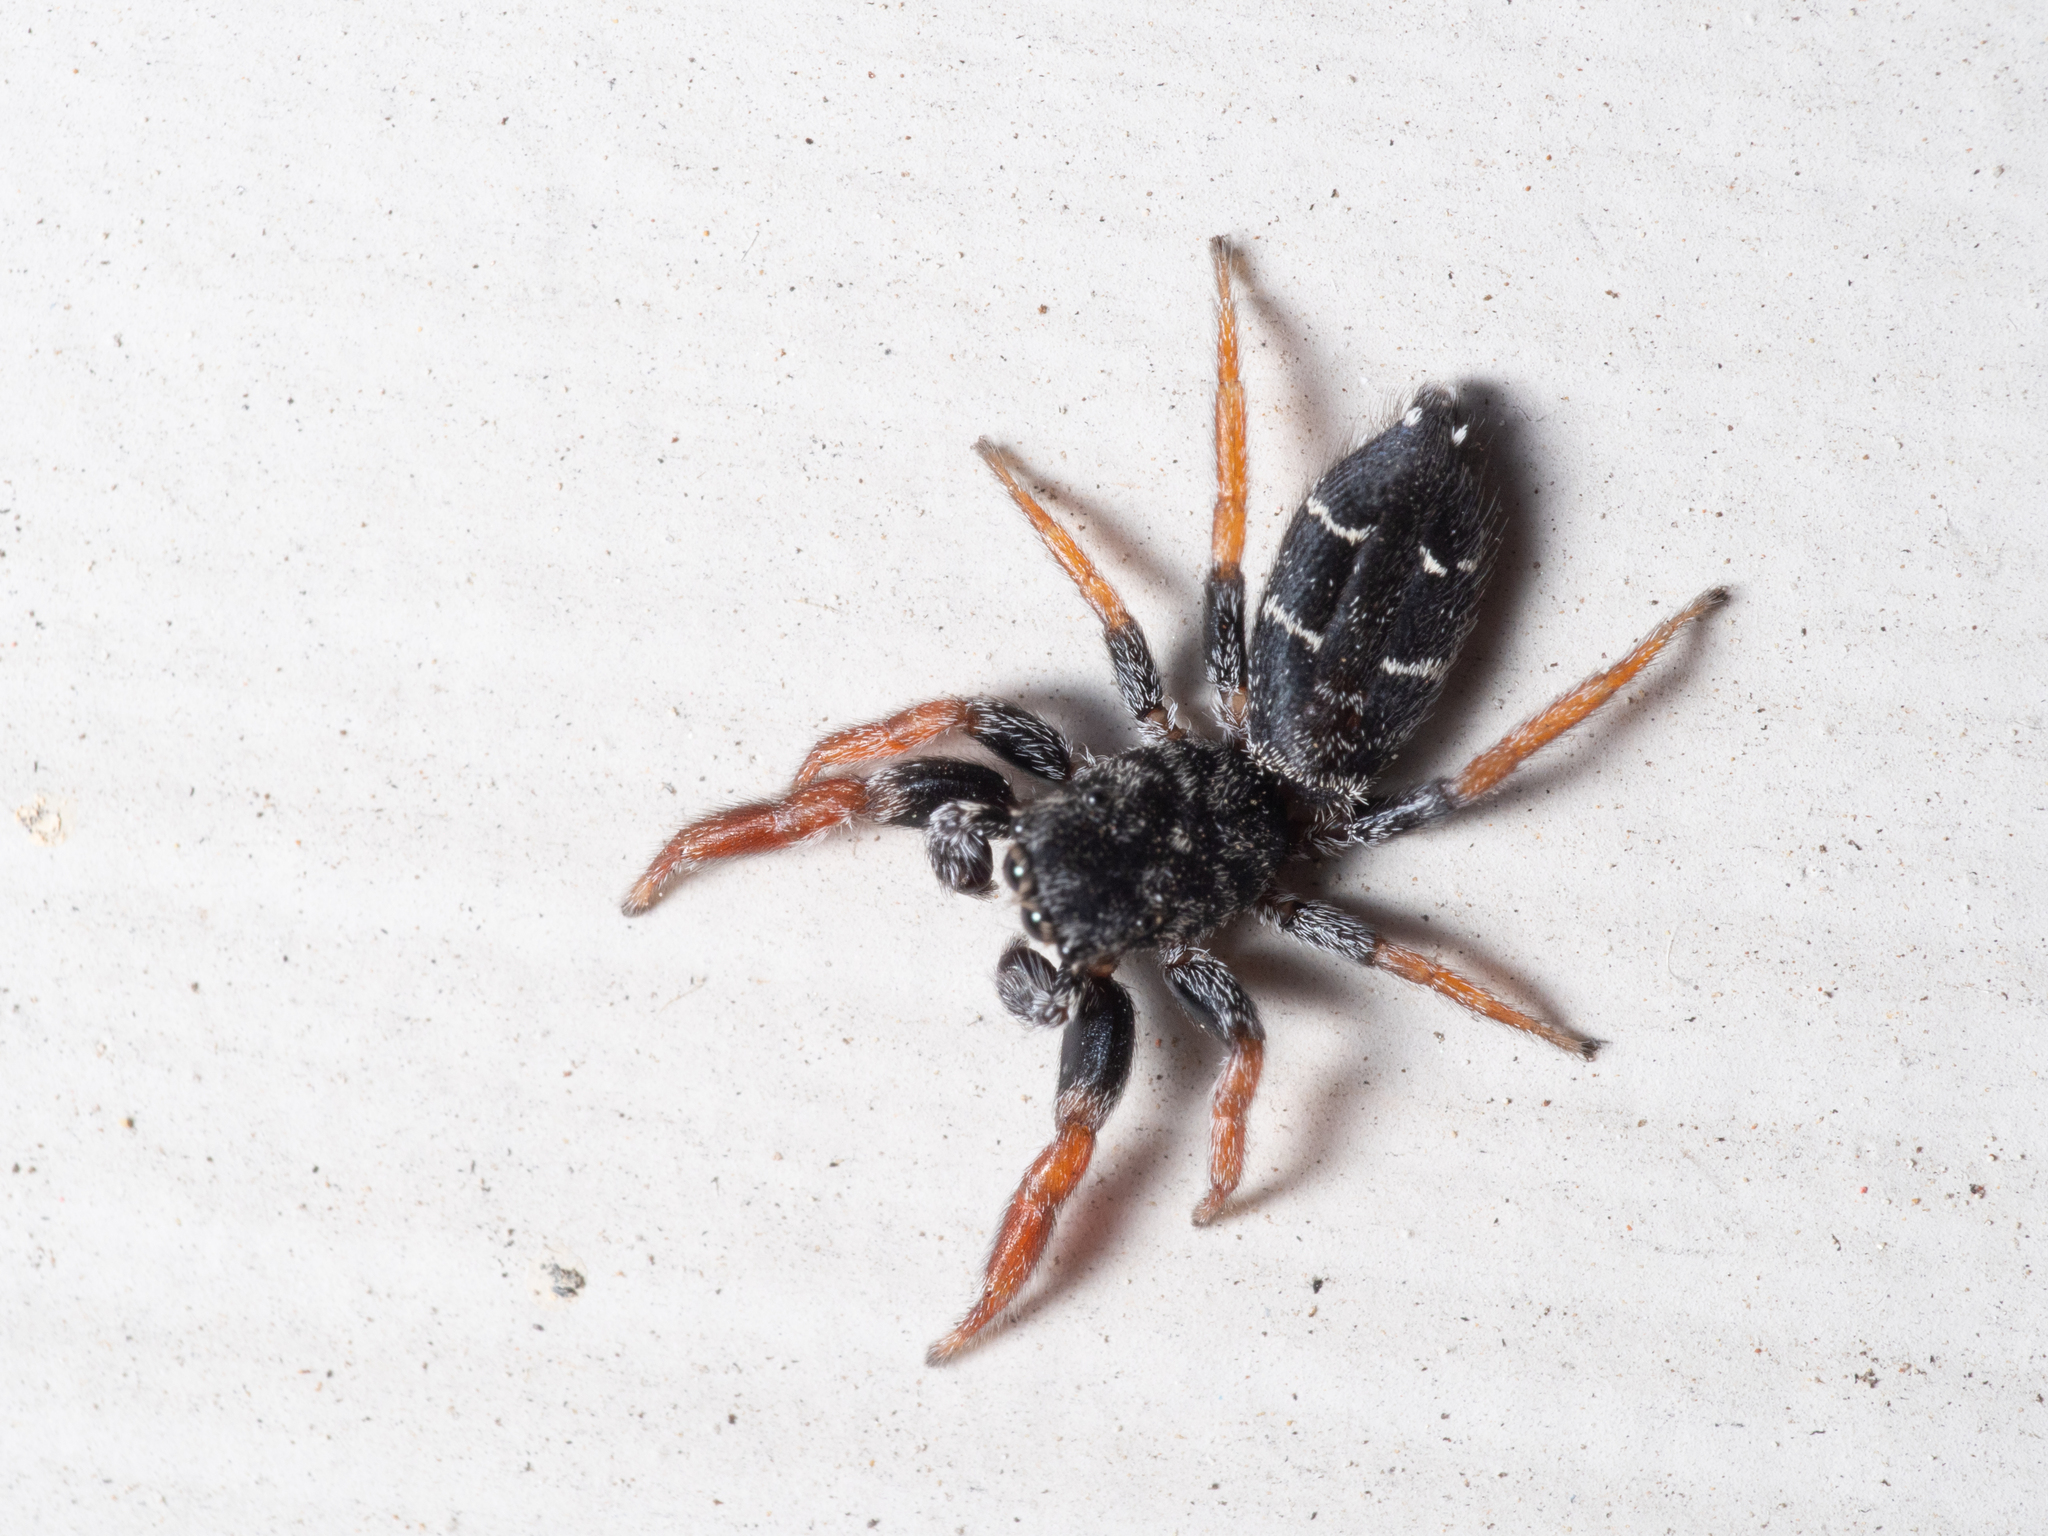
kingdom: Animalia
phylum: Arthropoda
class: Arachnida
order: Araneae
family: Salticidae
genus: Holoplatys
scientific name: Holoplatys invenusta
